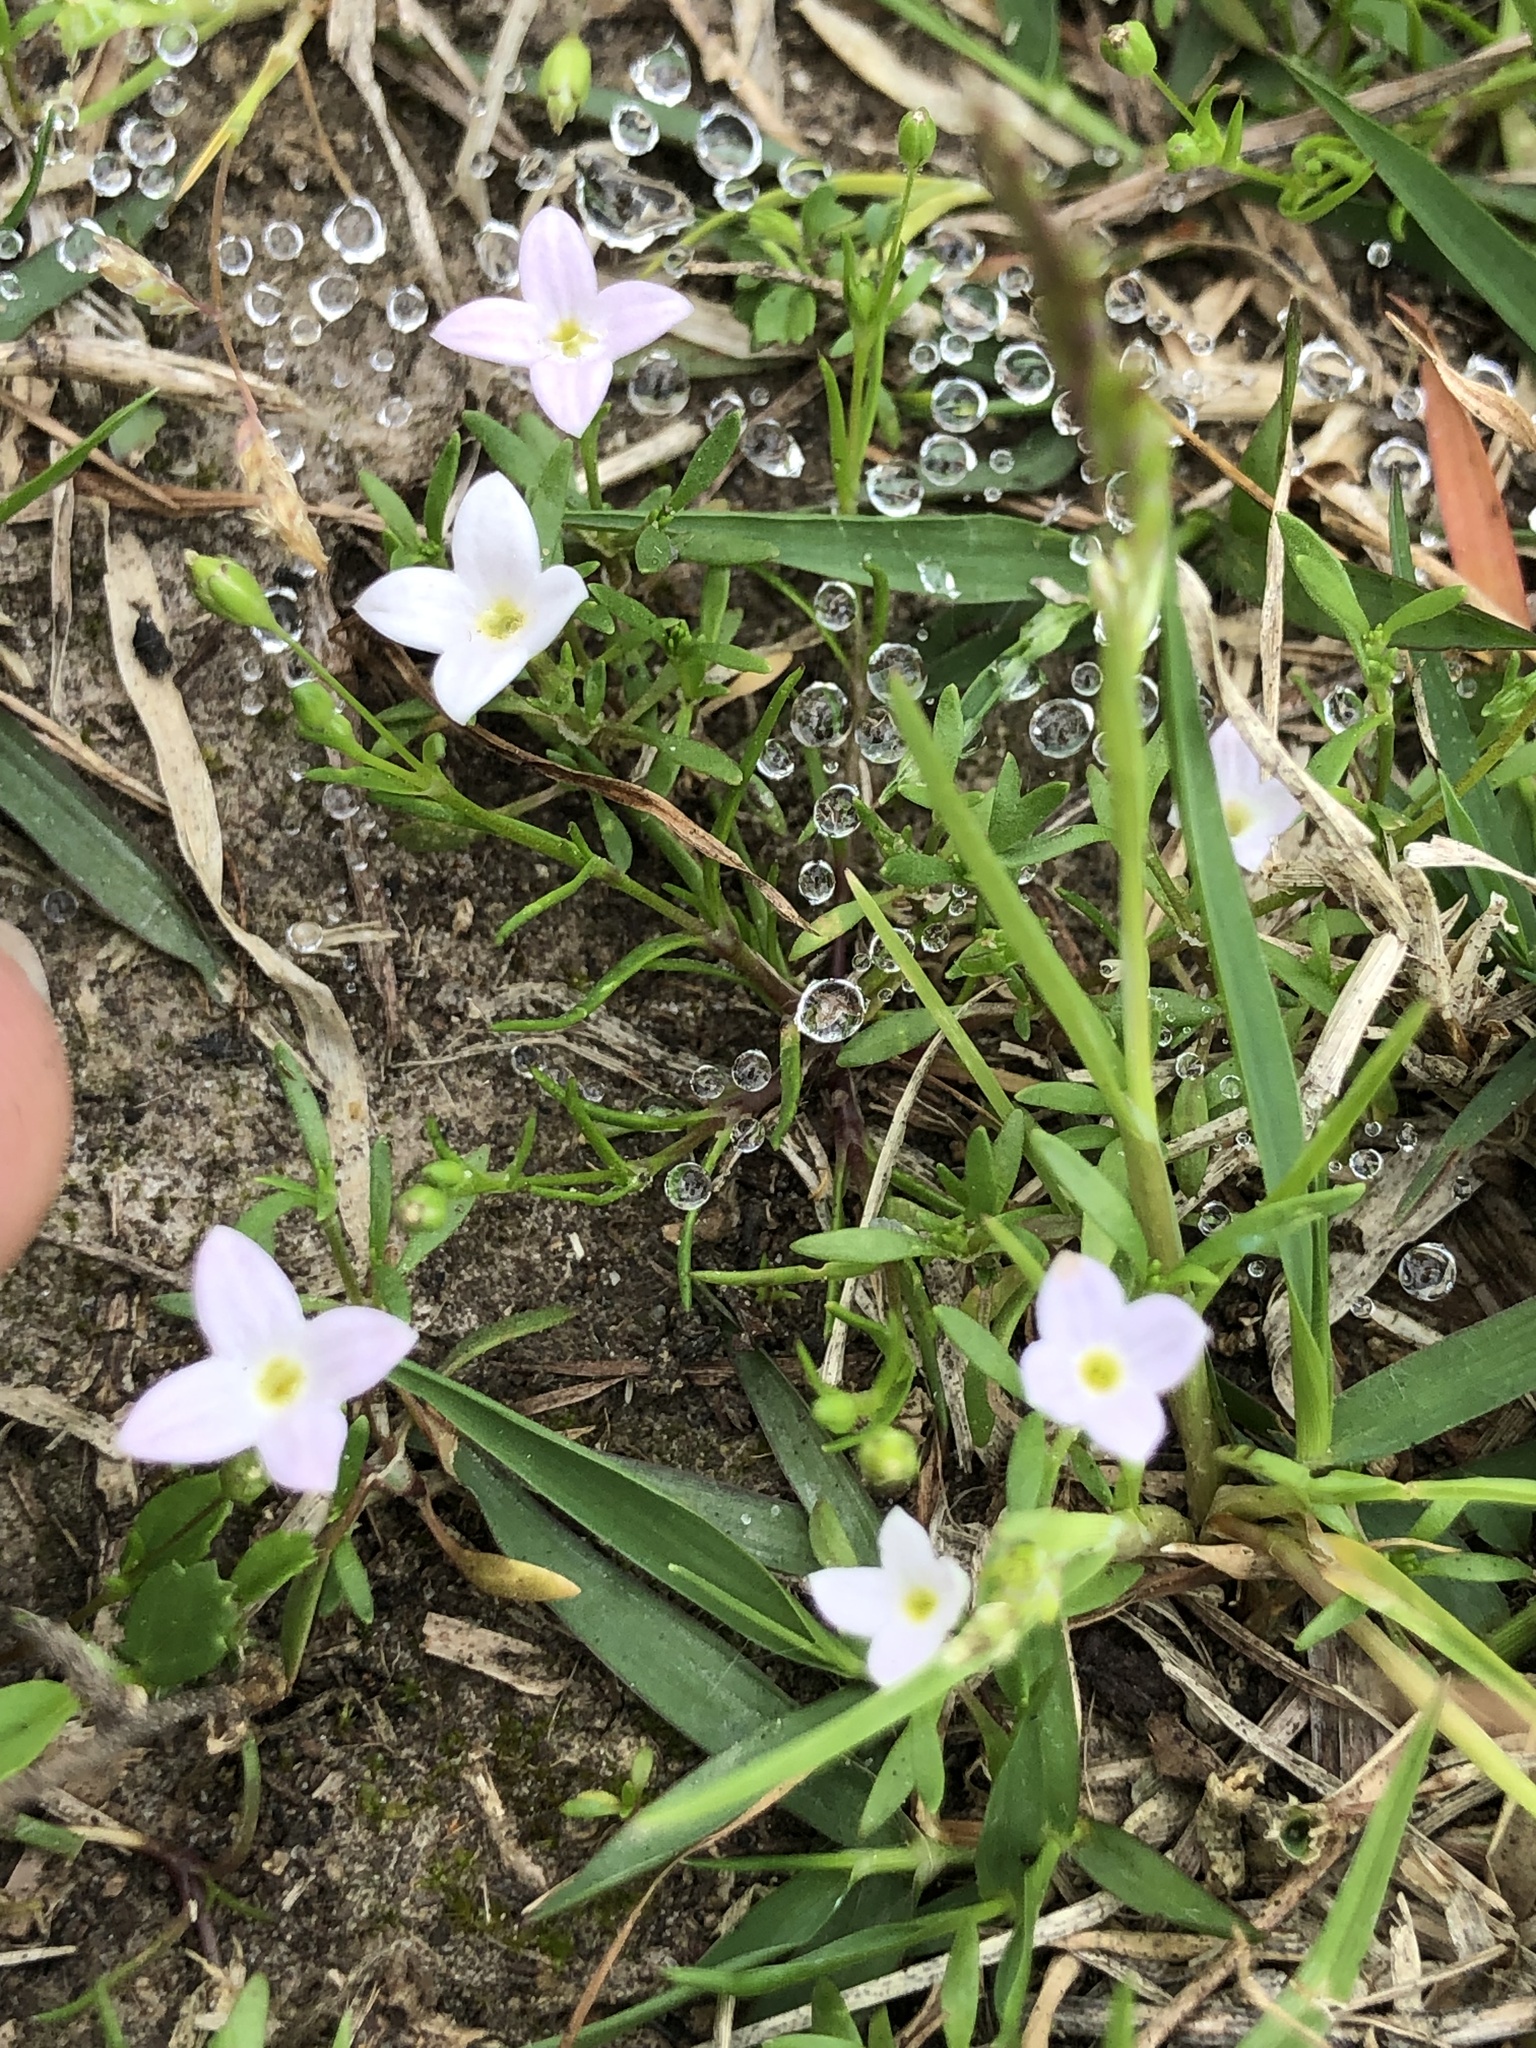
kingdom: Plantae
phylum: Tracheophyta
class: Magnoliopsida
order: Gentianales
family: Rubiaceae
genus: Houstonia
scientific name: Houstonia rosea
